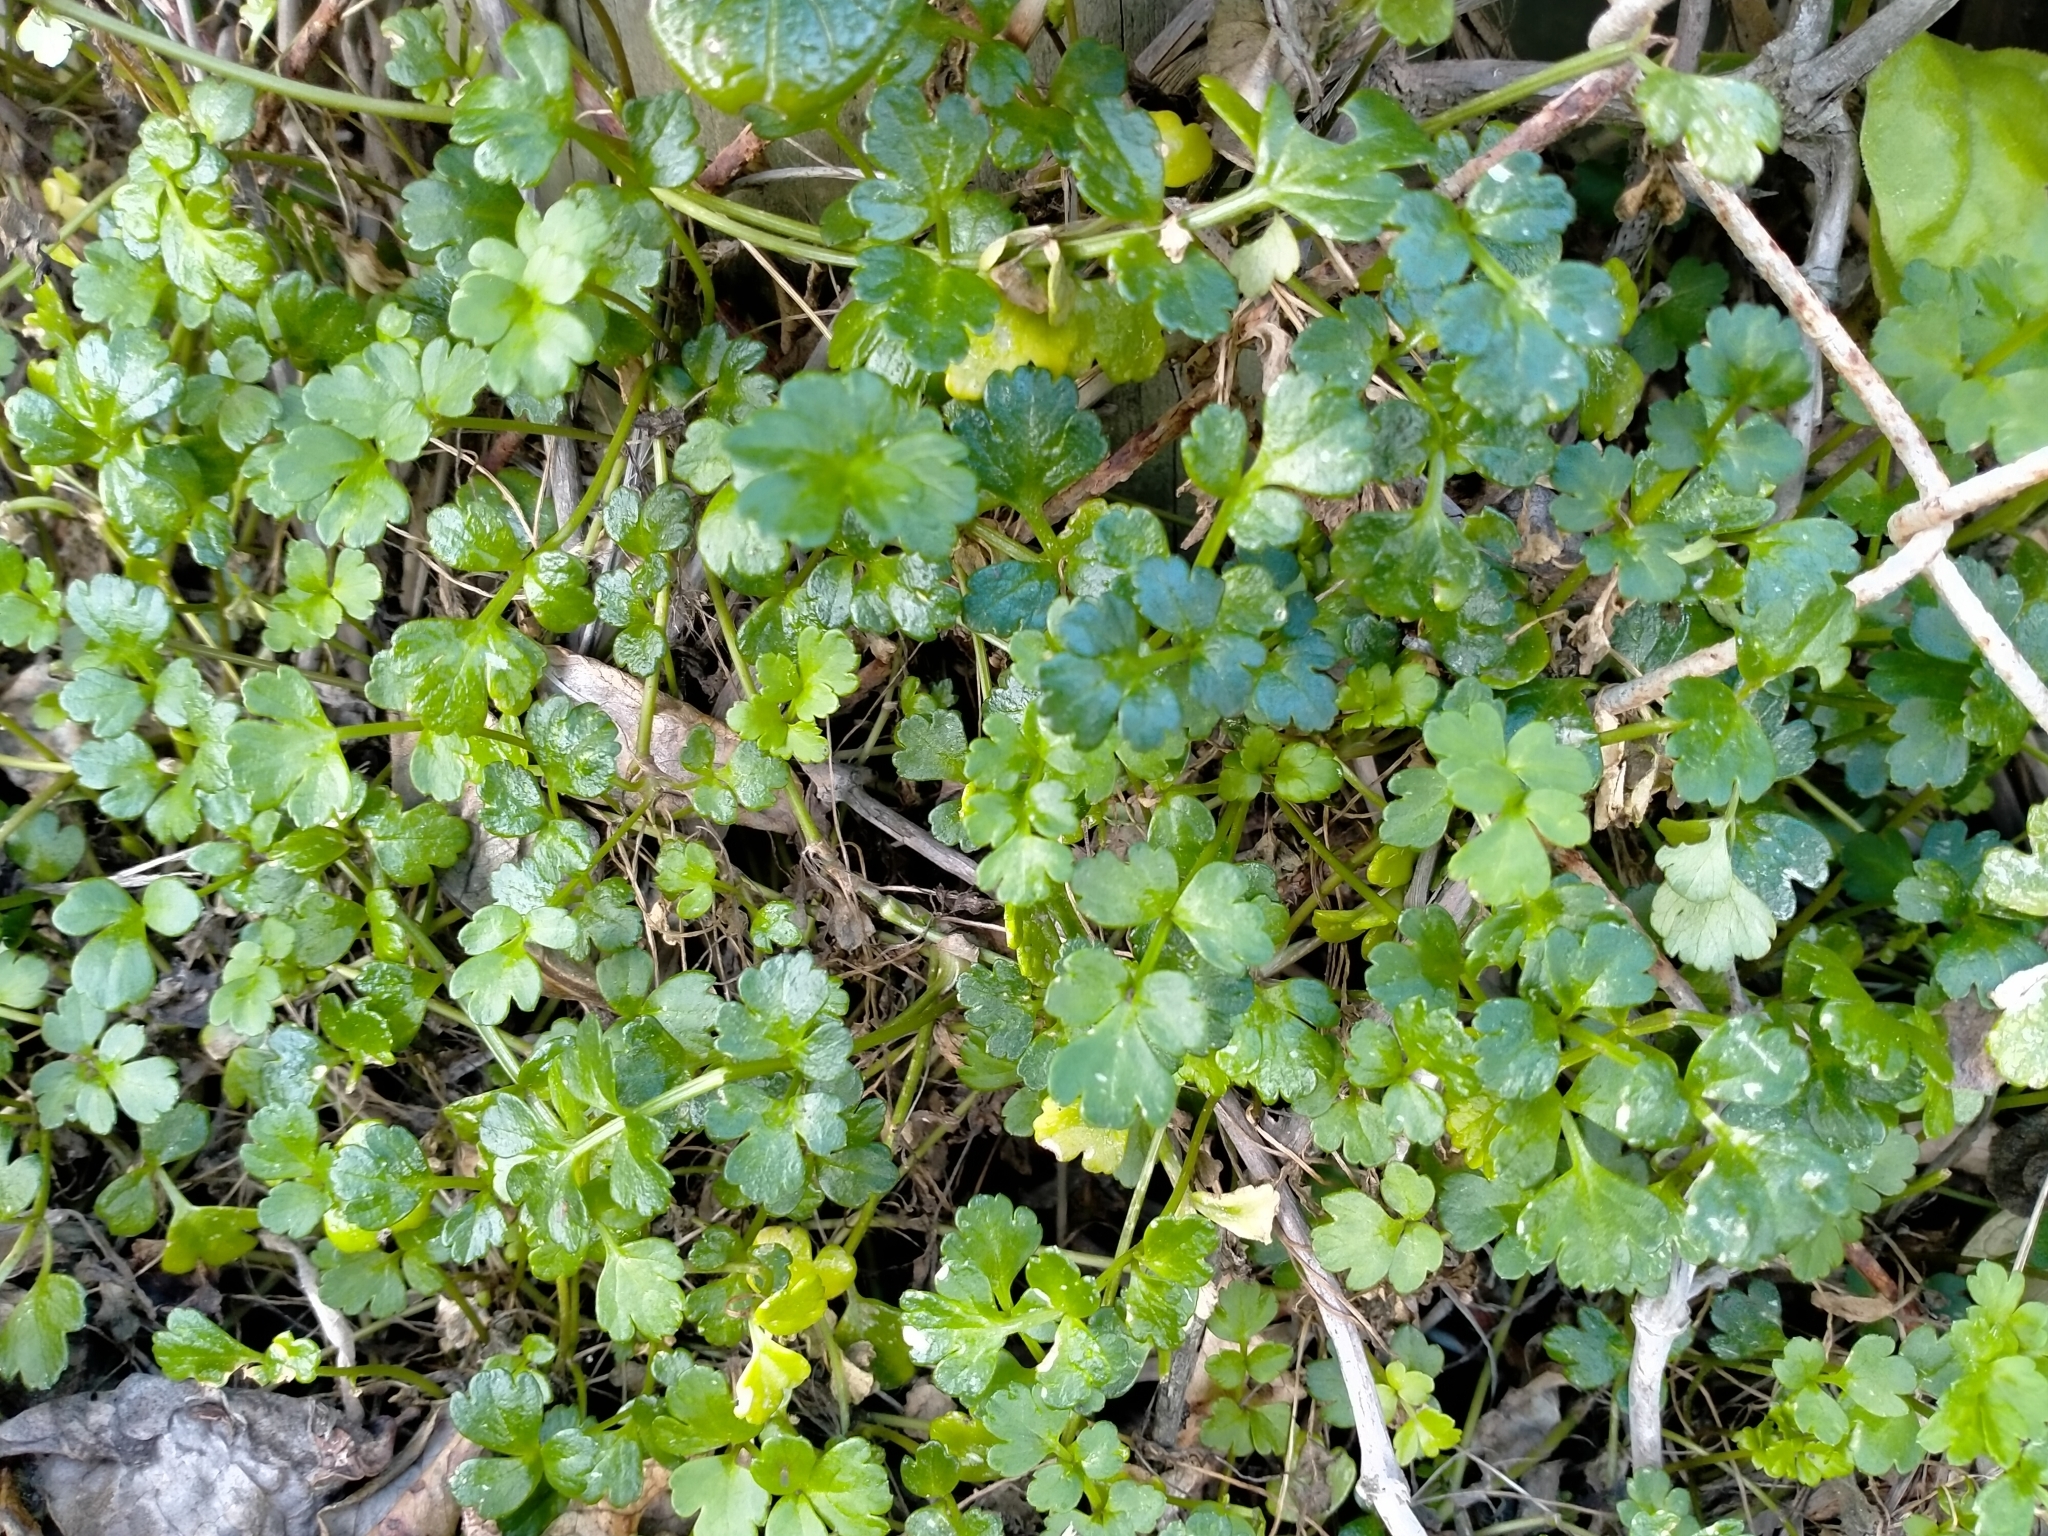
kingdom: Plantae
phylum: Tracheophyta
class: Magnoliopsida
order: Apiales
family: Apiaceae
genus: Apium
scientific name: Apium prostratum
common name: Prostrate marshwort
